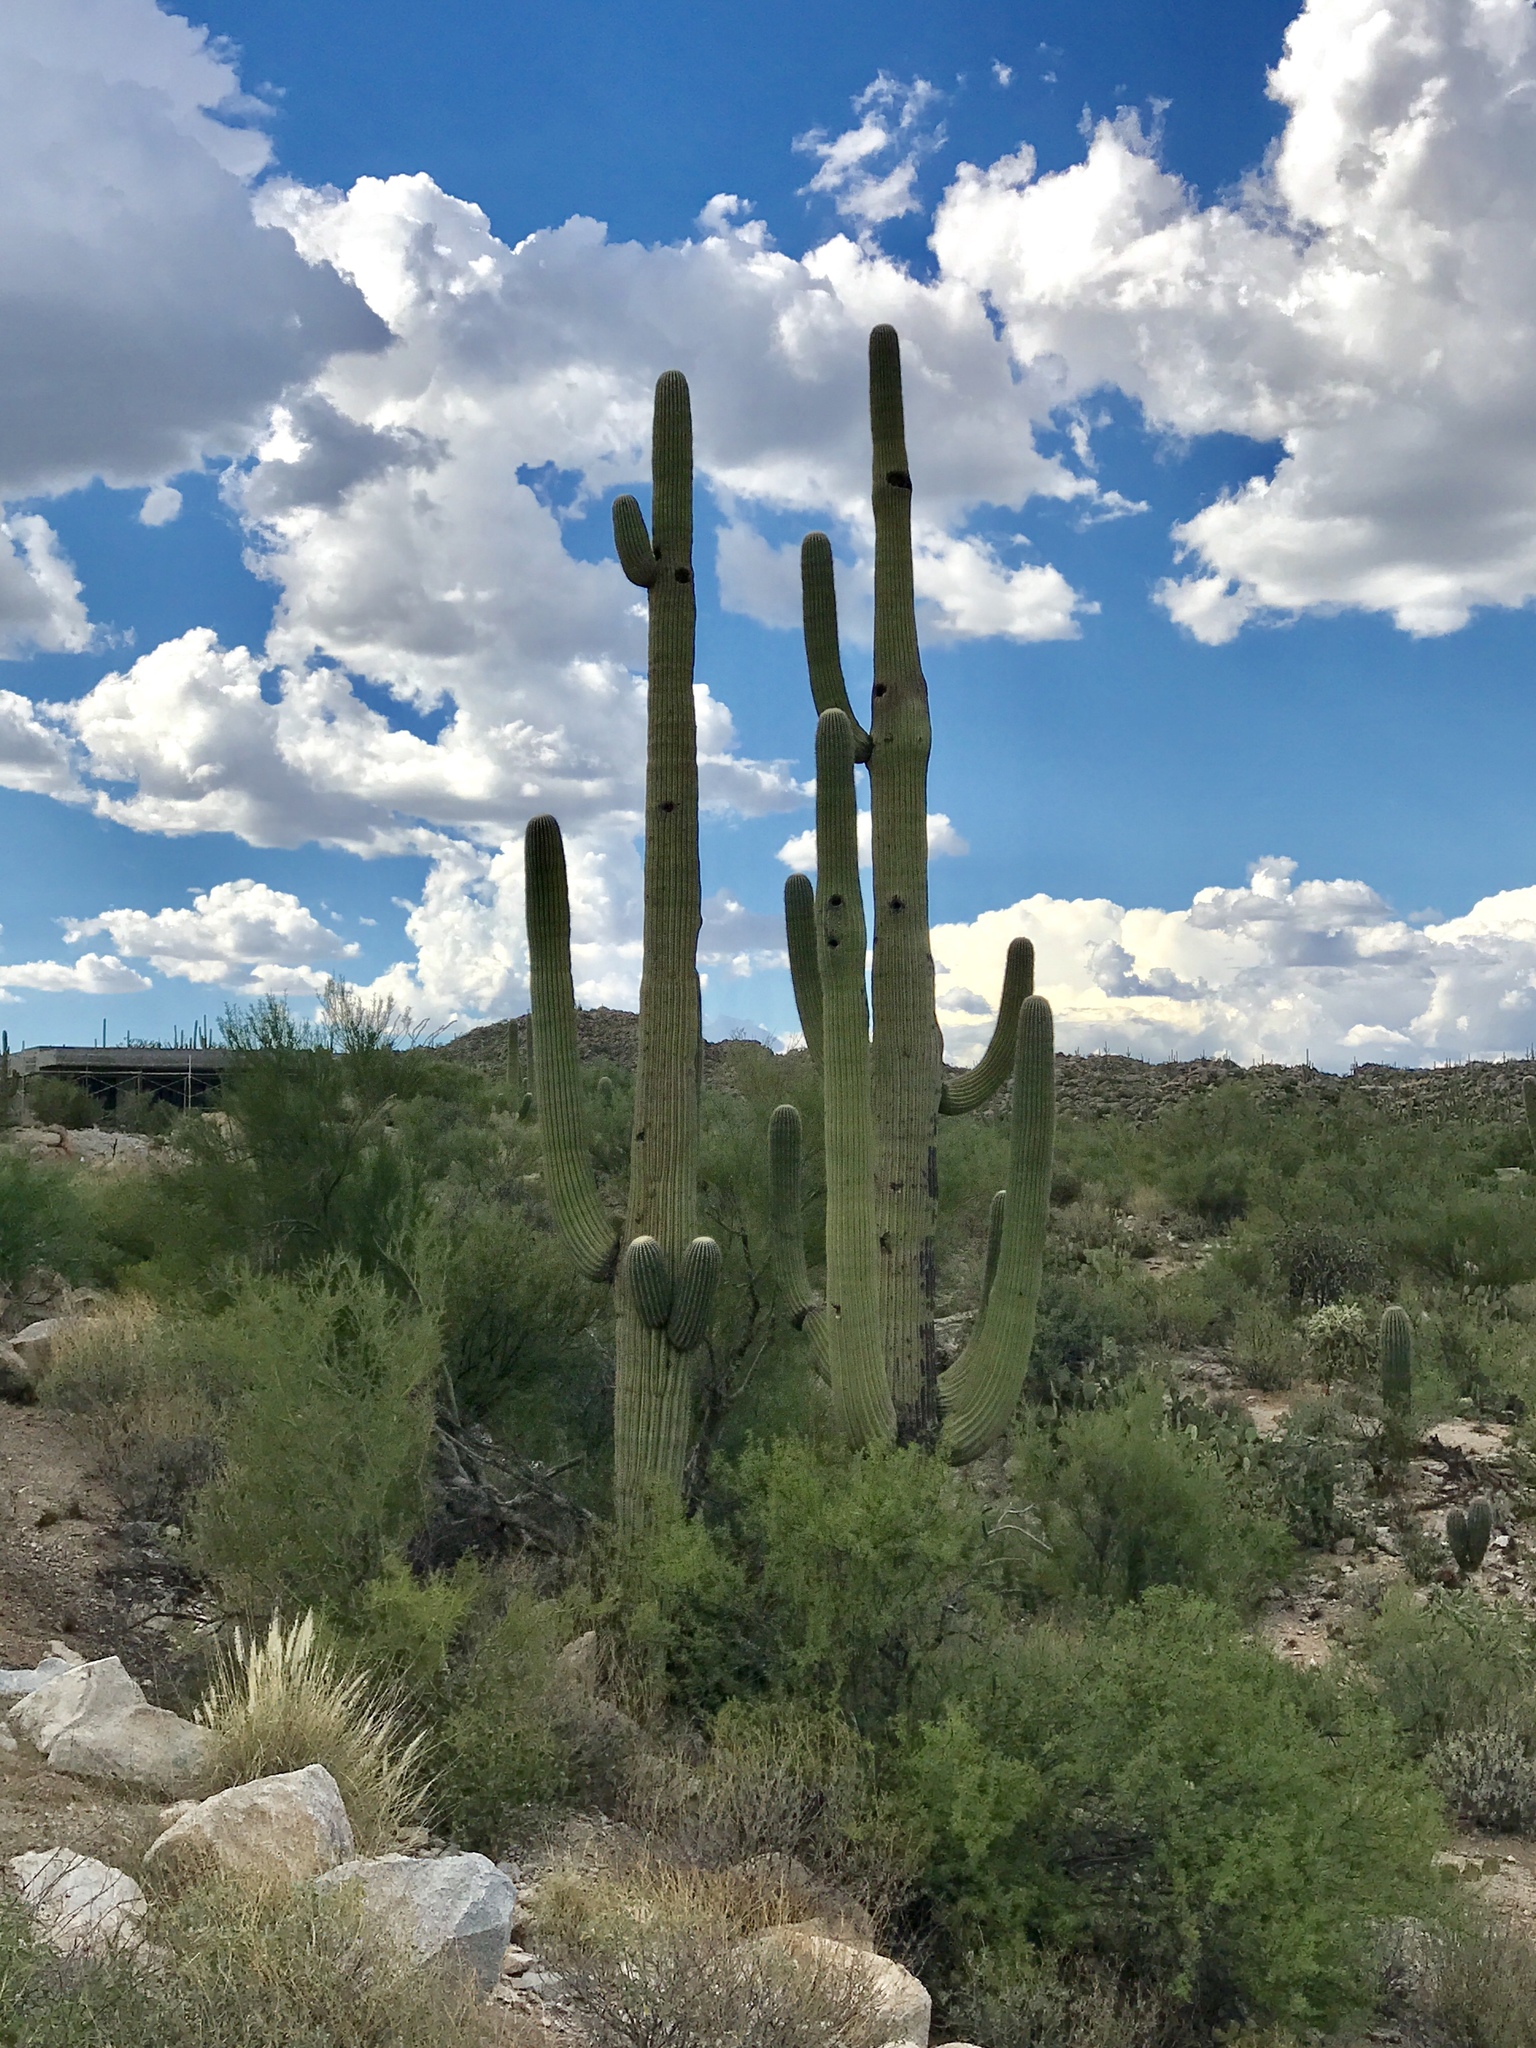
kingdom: Plantae
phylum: Tracheophyta
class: Magnoliopsida
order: Caryophyllales
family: Cactaceae
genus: Carnegiea
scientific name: Carnegiea gigantea
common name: Saguaro
